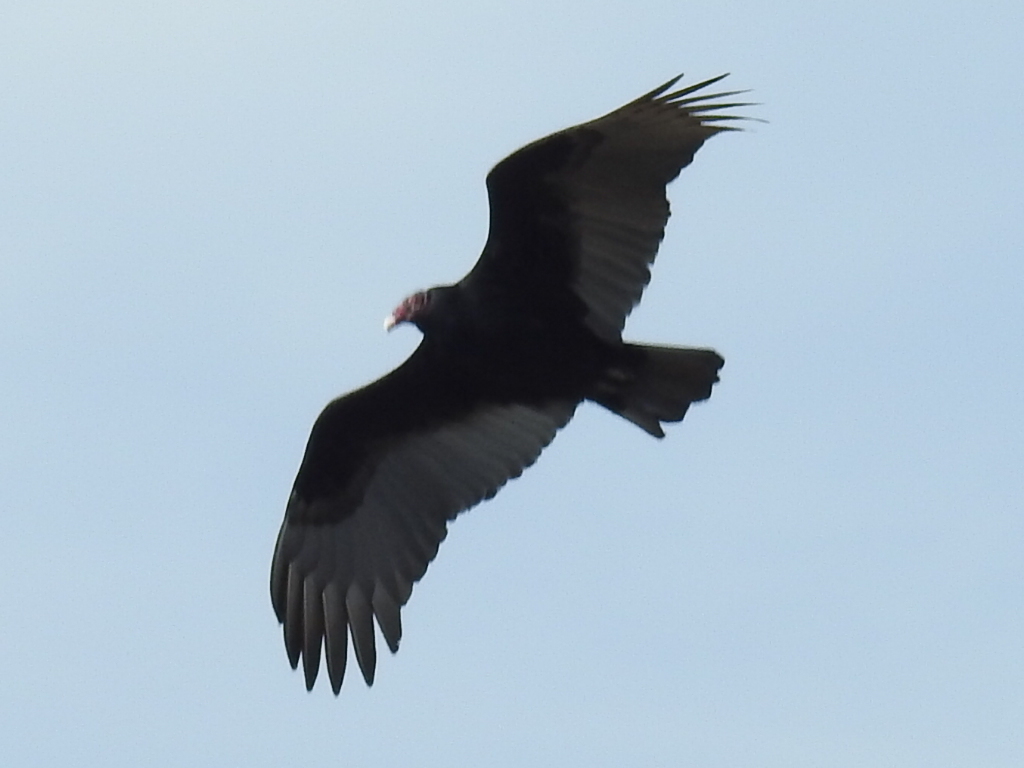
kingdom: Animalia
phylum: Chordata
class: Aves
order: Accipitriformes
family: Cathartidae
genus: Cathartes
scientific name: Cathartes aura
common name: Turkey vulture
